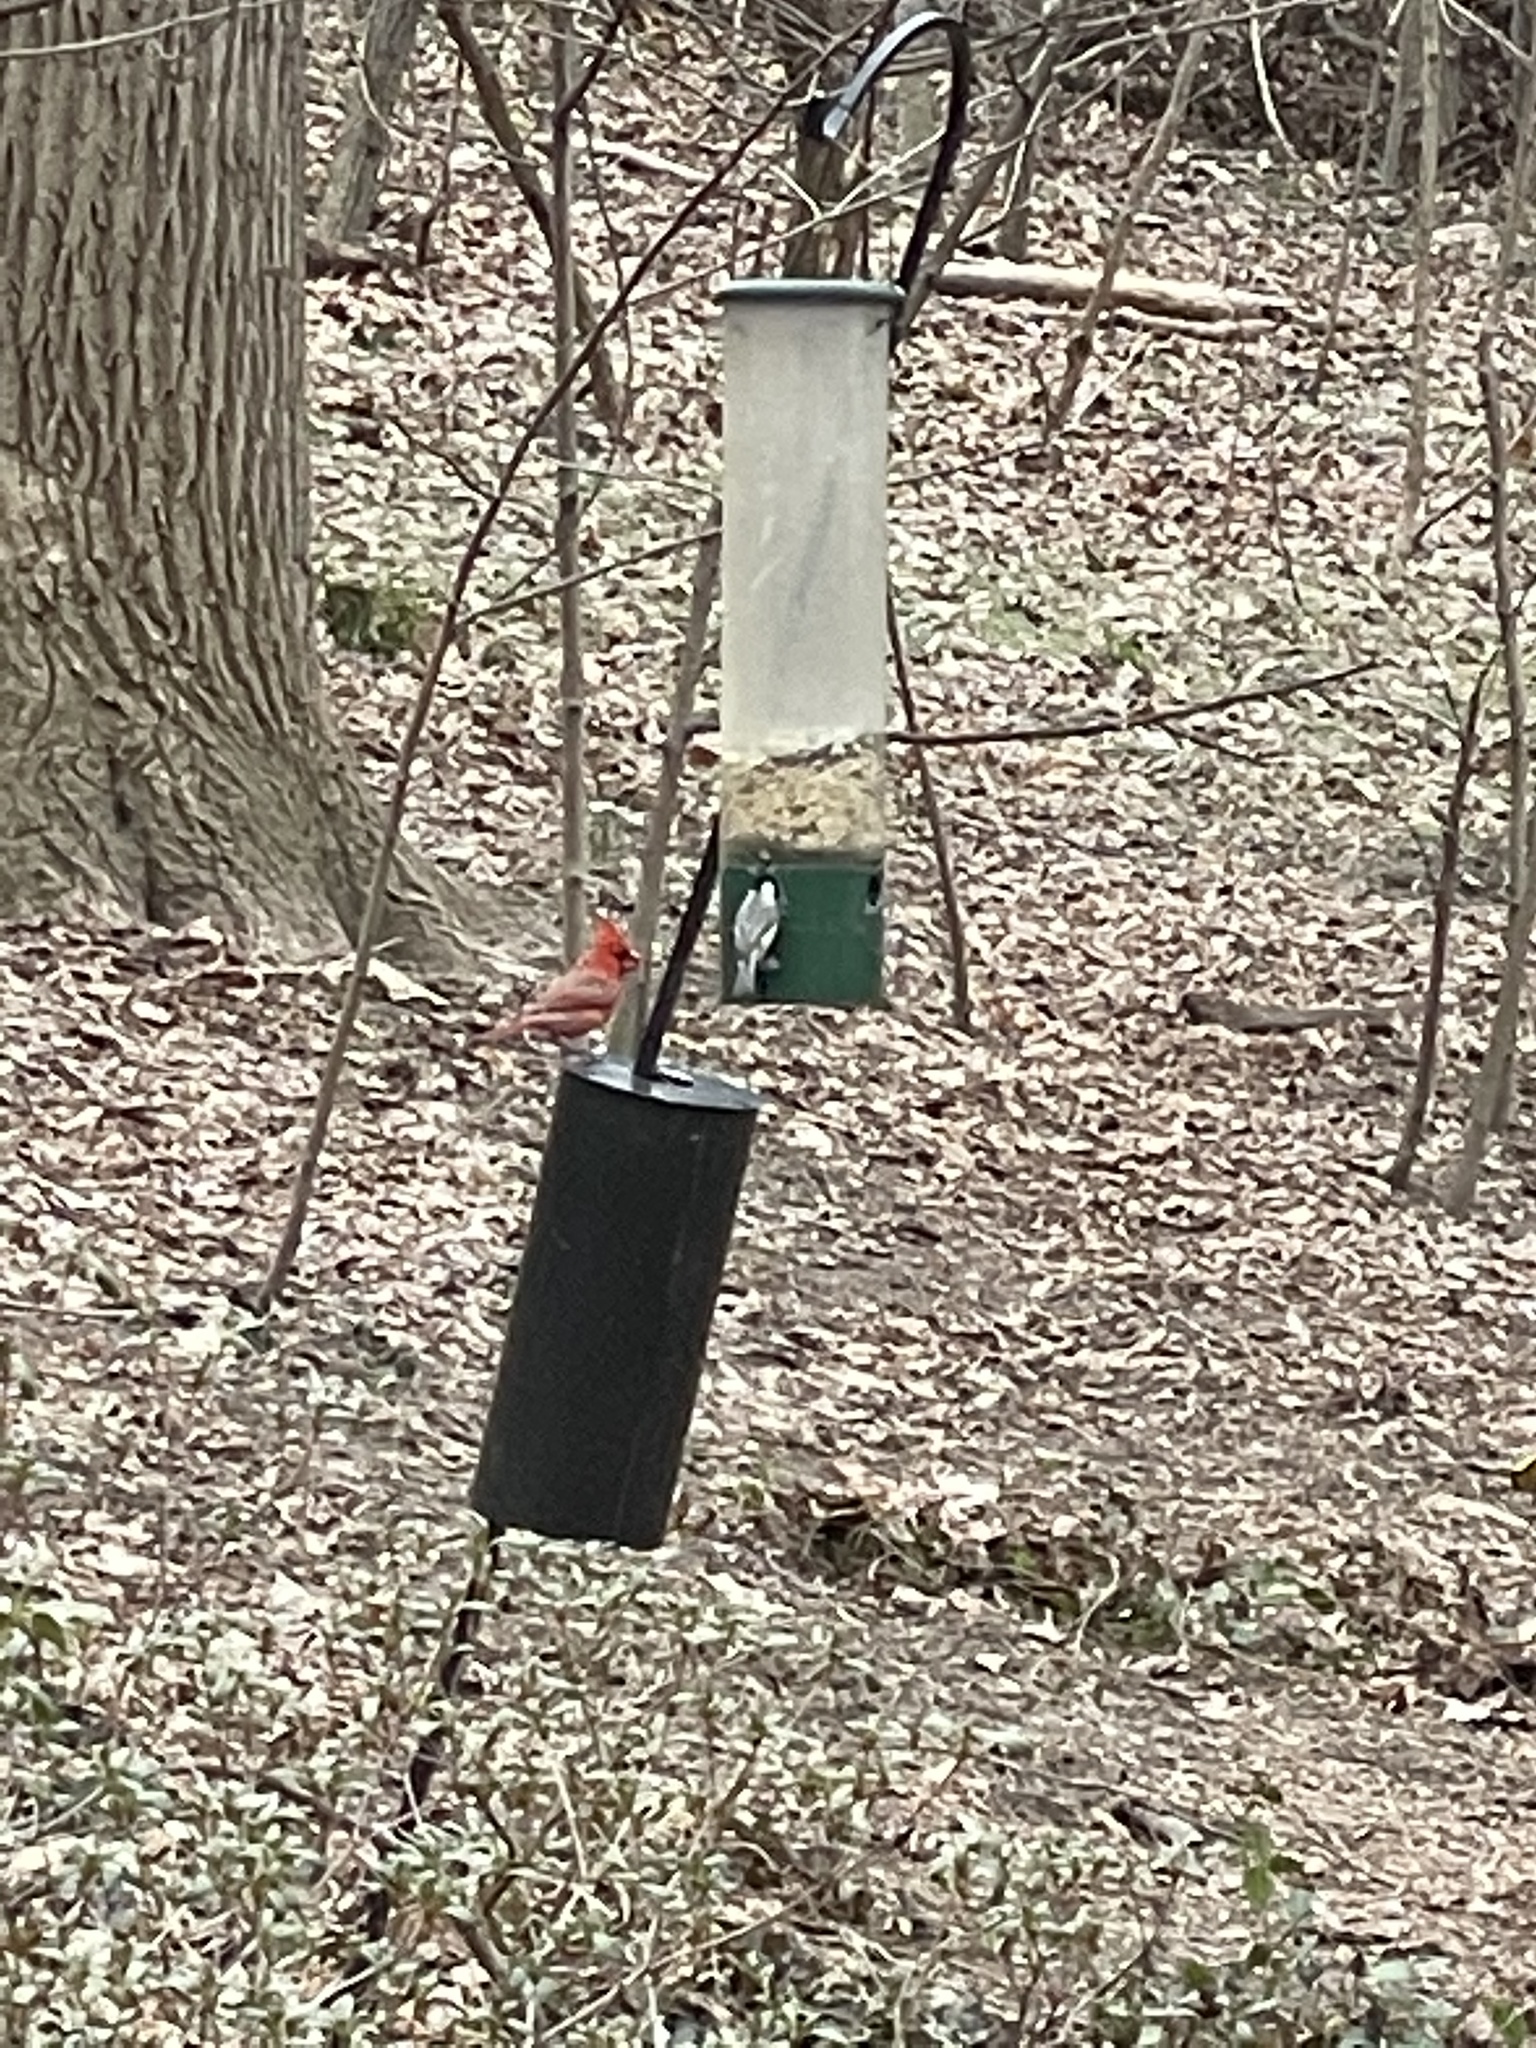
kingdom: Animalia
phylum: Chordata
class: Aves
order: Passeriformes
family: Cardinalidae
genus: Cardinalis
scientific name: Cardinalis cardinalis
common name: Northern cardinal
